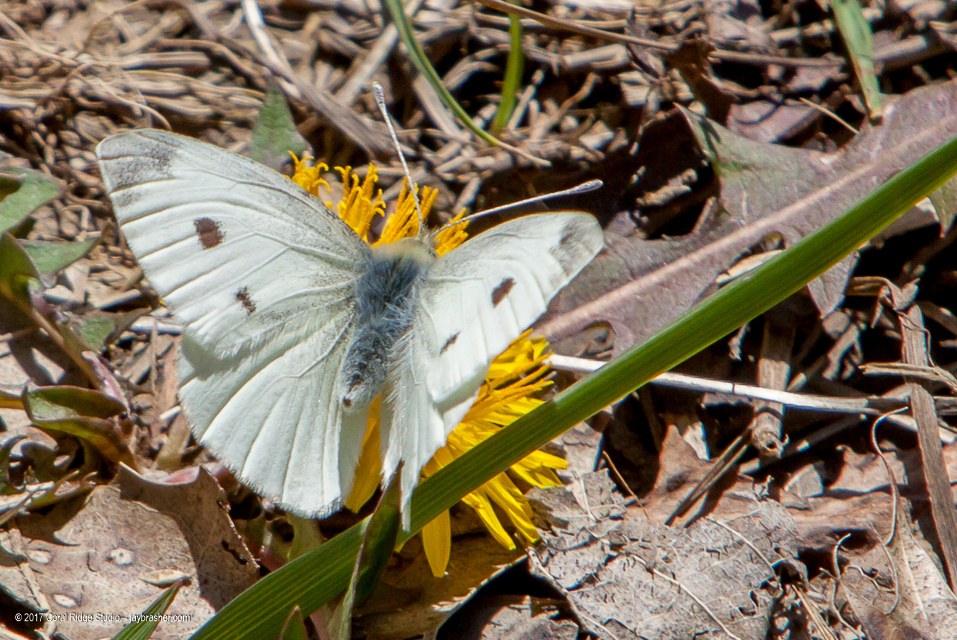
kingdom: Animalia
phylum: Arthropoda
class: Insecta
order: Lepidoptera
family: Pieridae
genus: Pieris
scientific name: Pieris rapae
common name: Small white
